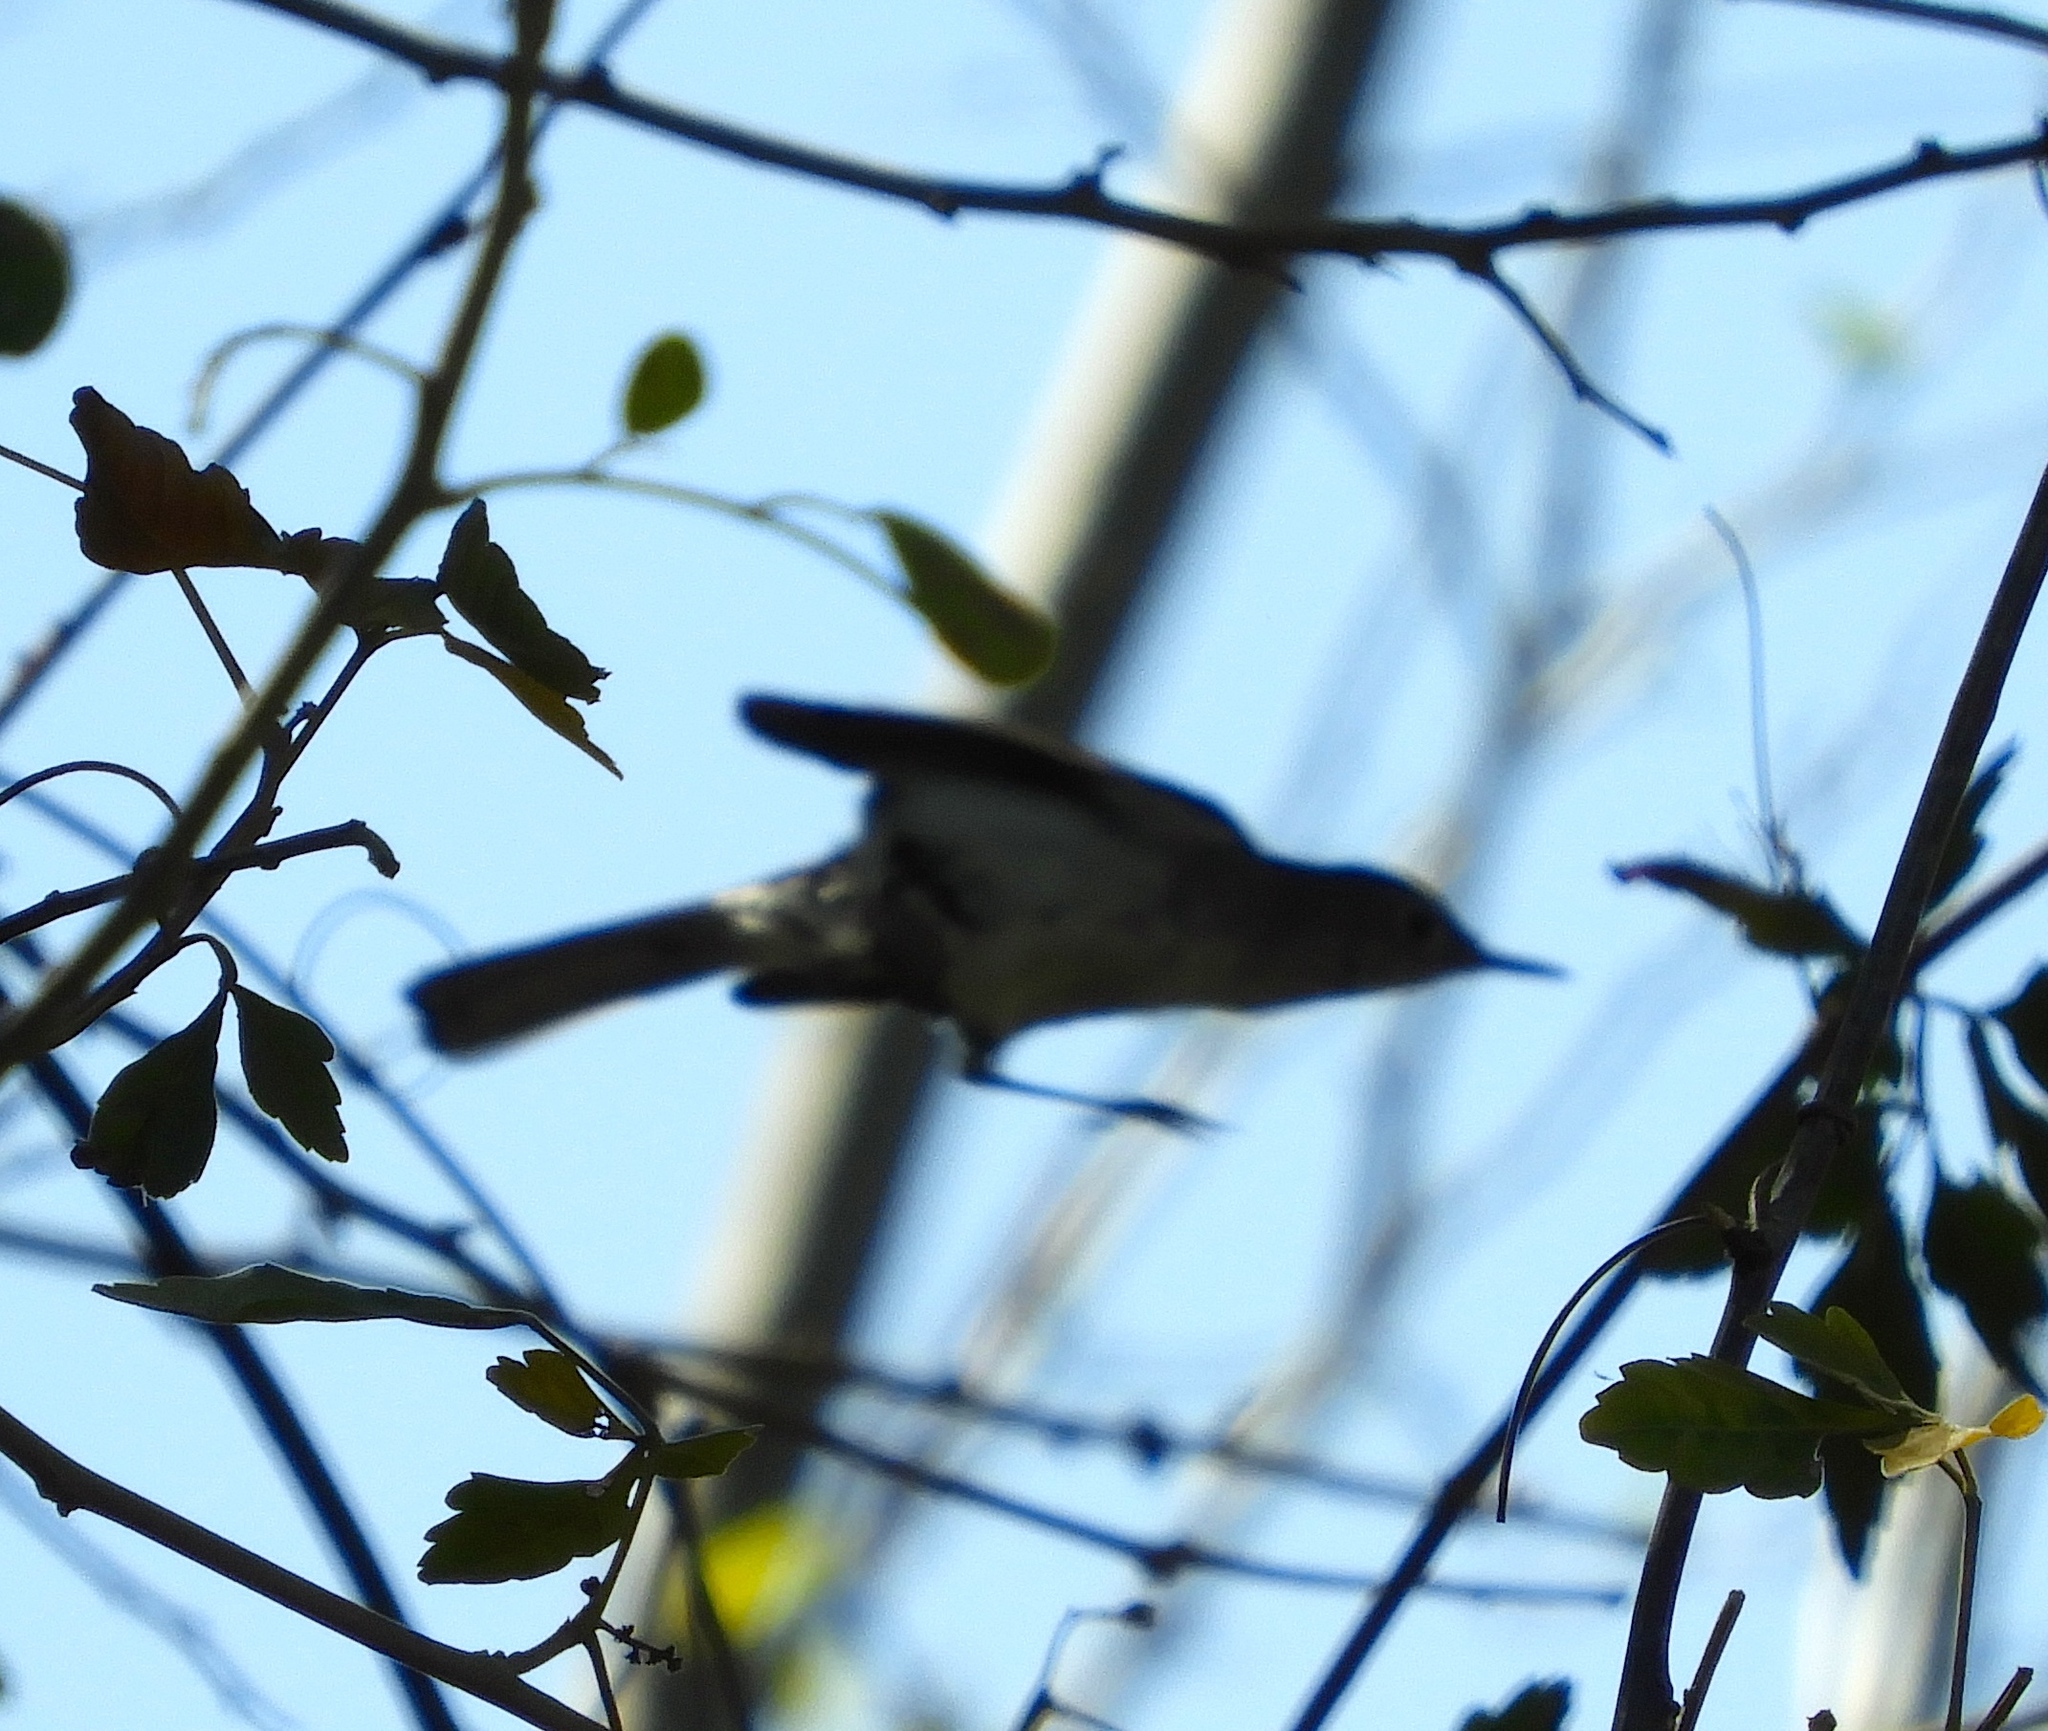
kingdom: Animalia
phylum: Chordata
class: Aves
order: Passeriformes
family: Polioptilidae
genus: Polioptila
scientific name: Polioptila nigriceps
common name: Black-capped gnatcatcher
